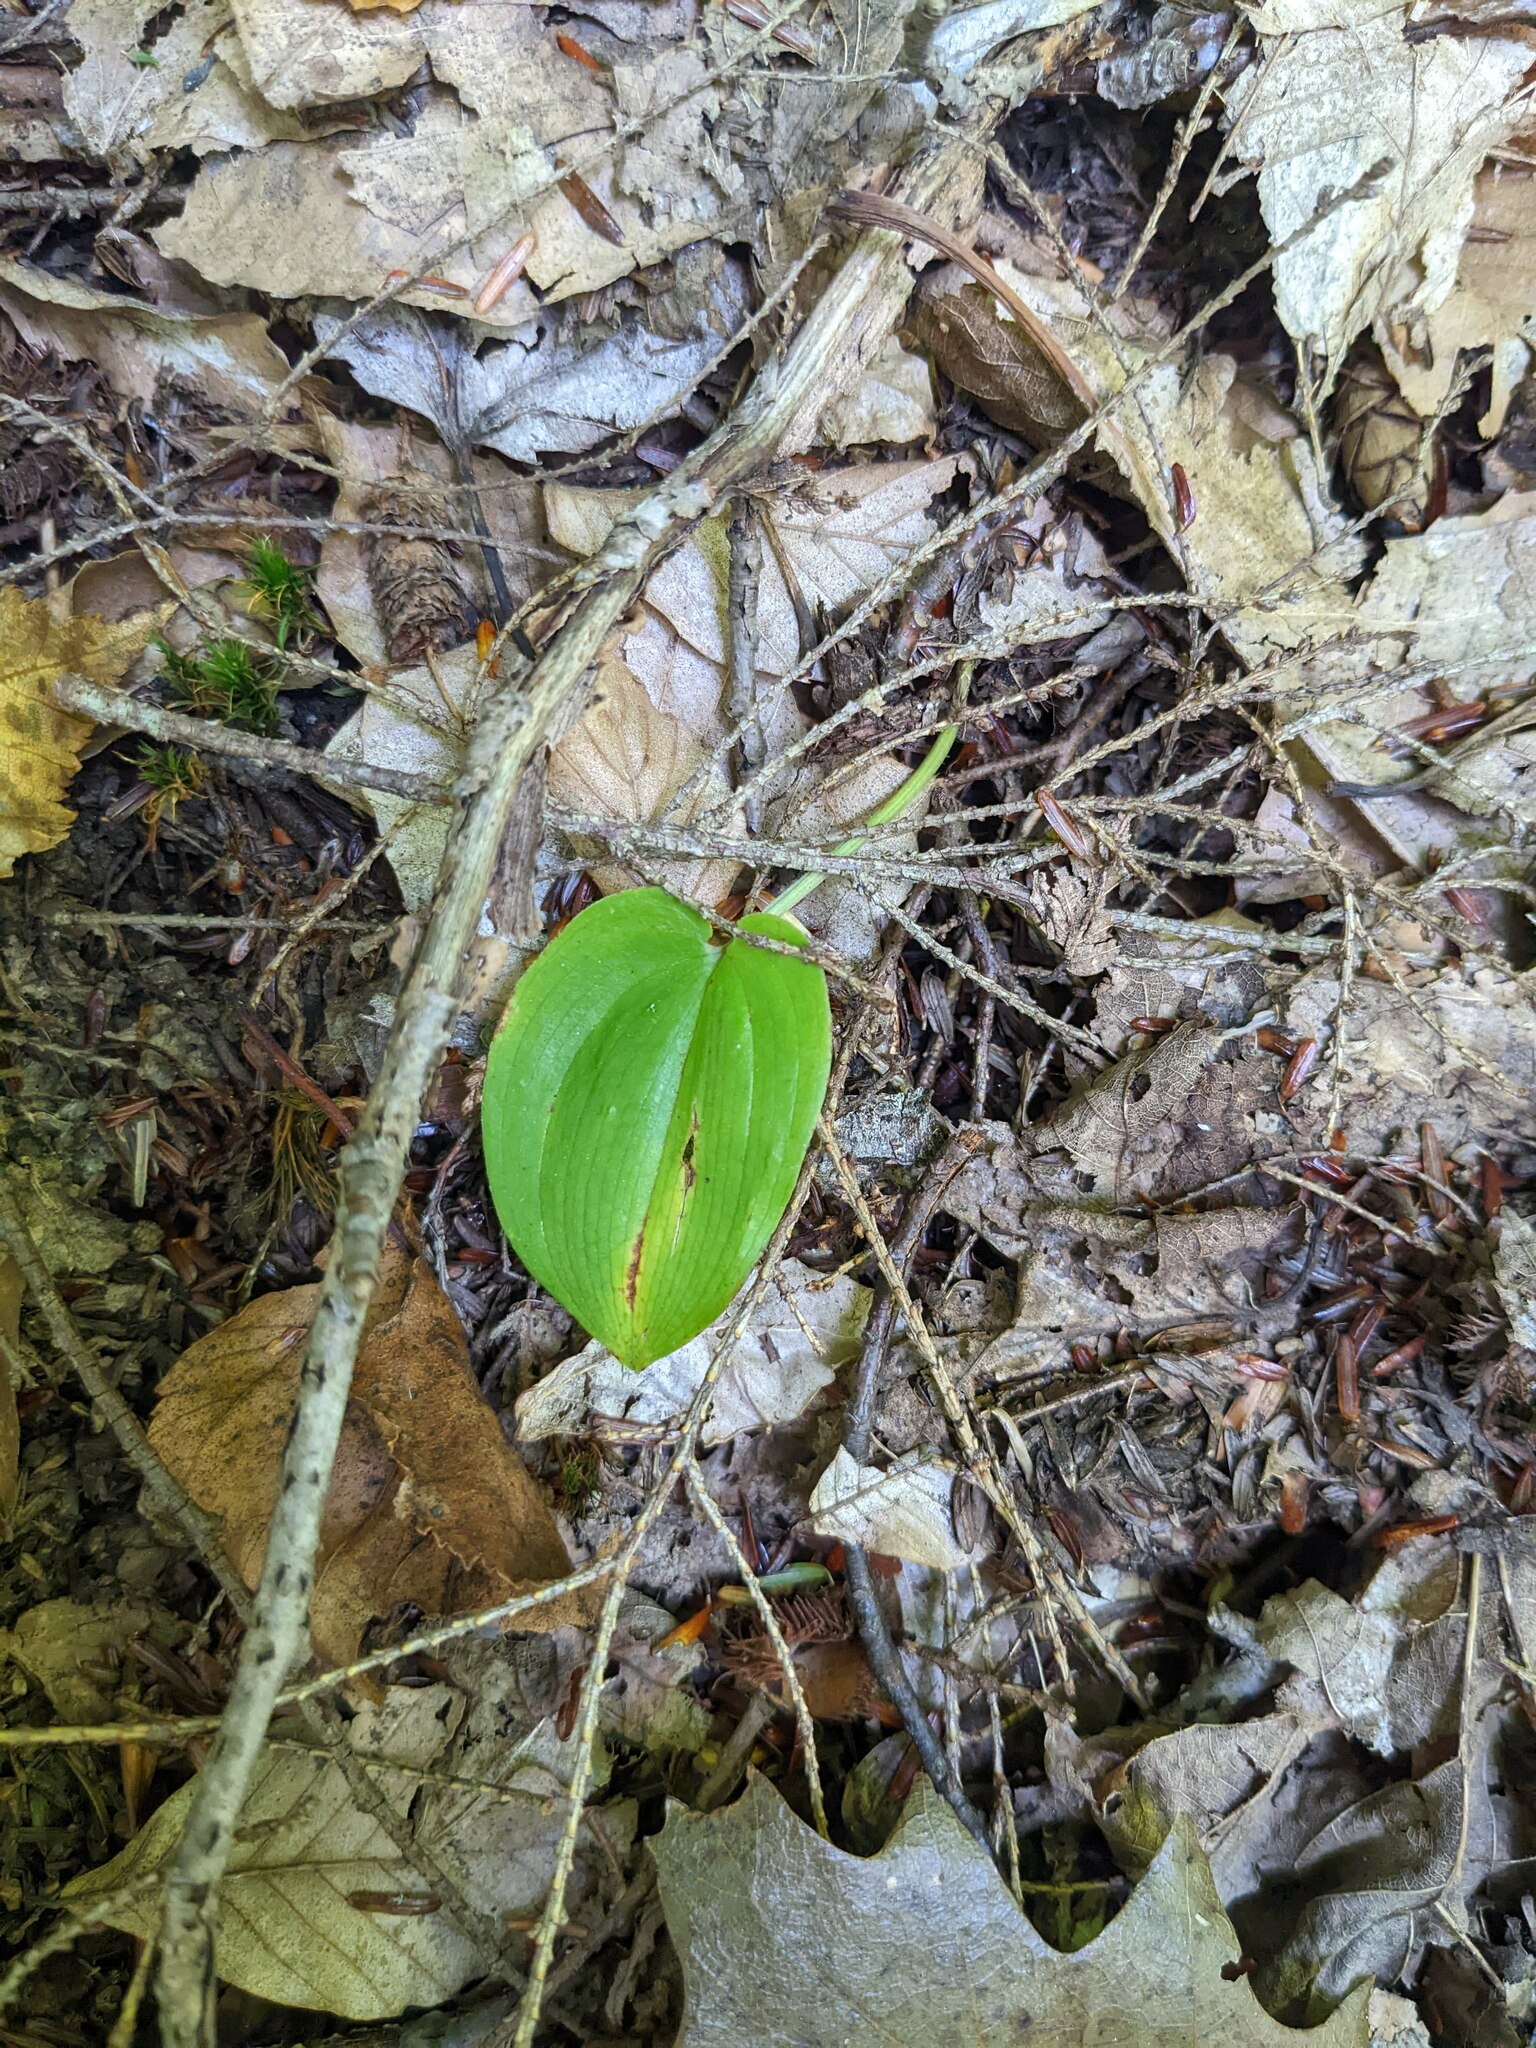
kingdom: Plantae
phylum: Tracheophyta
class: Liliopsida
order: Asparagales
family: Asparagaceae
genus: Maianthemum
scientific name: Maianthemum canadense
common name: False lily-of-the-valley
